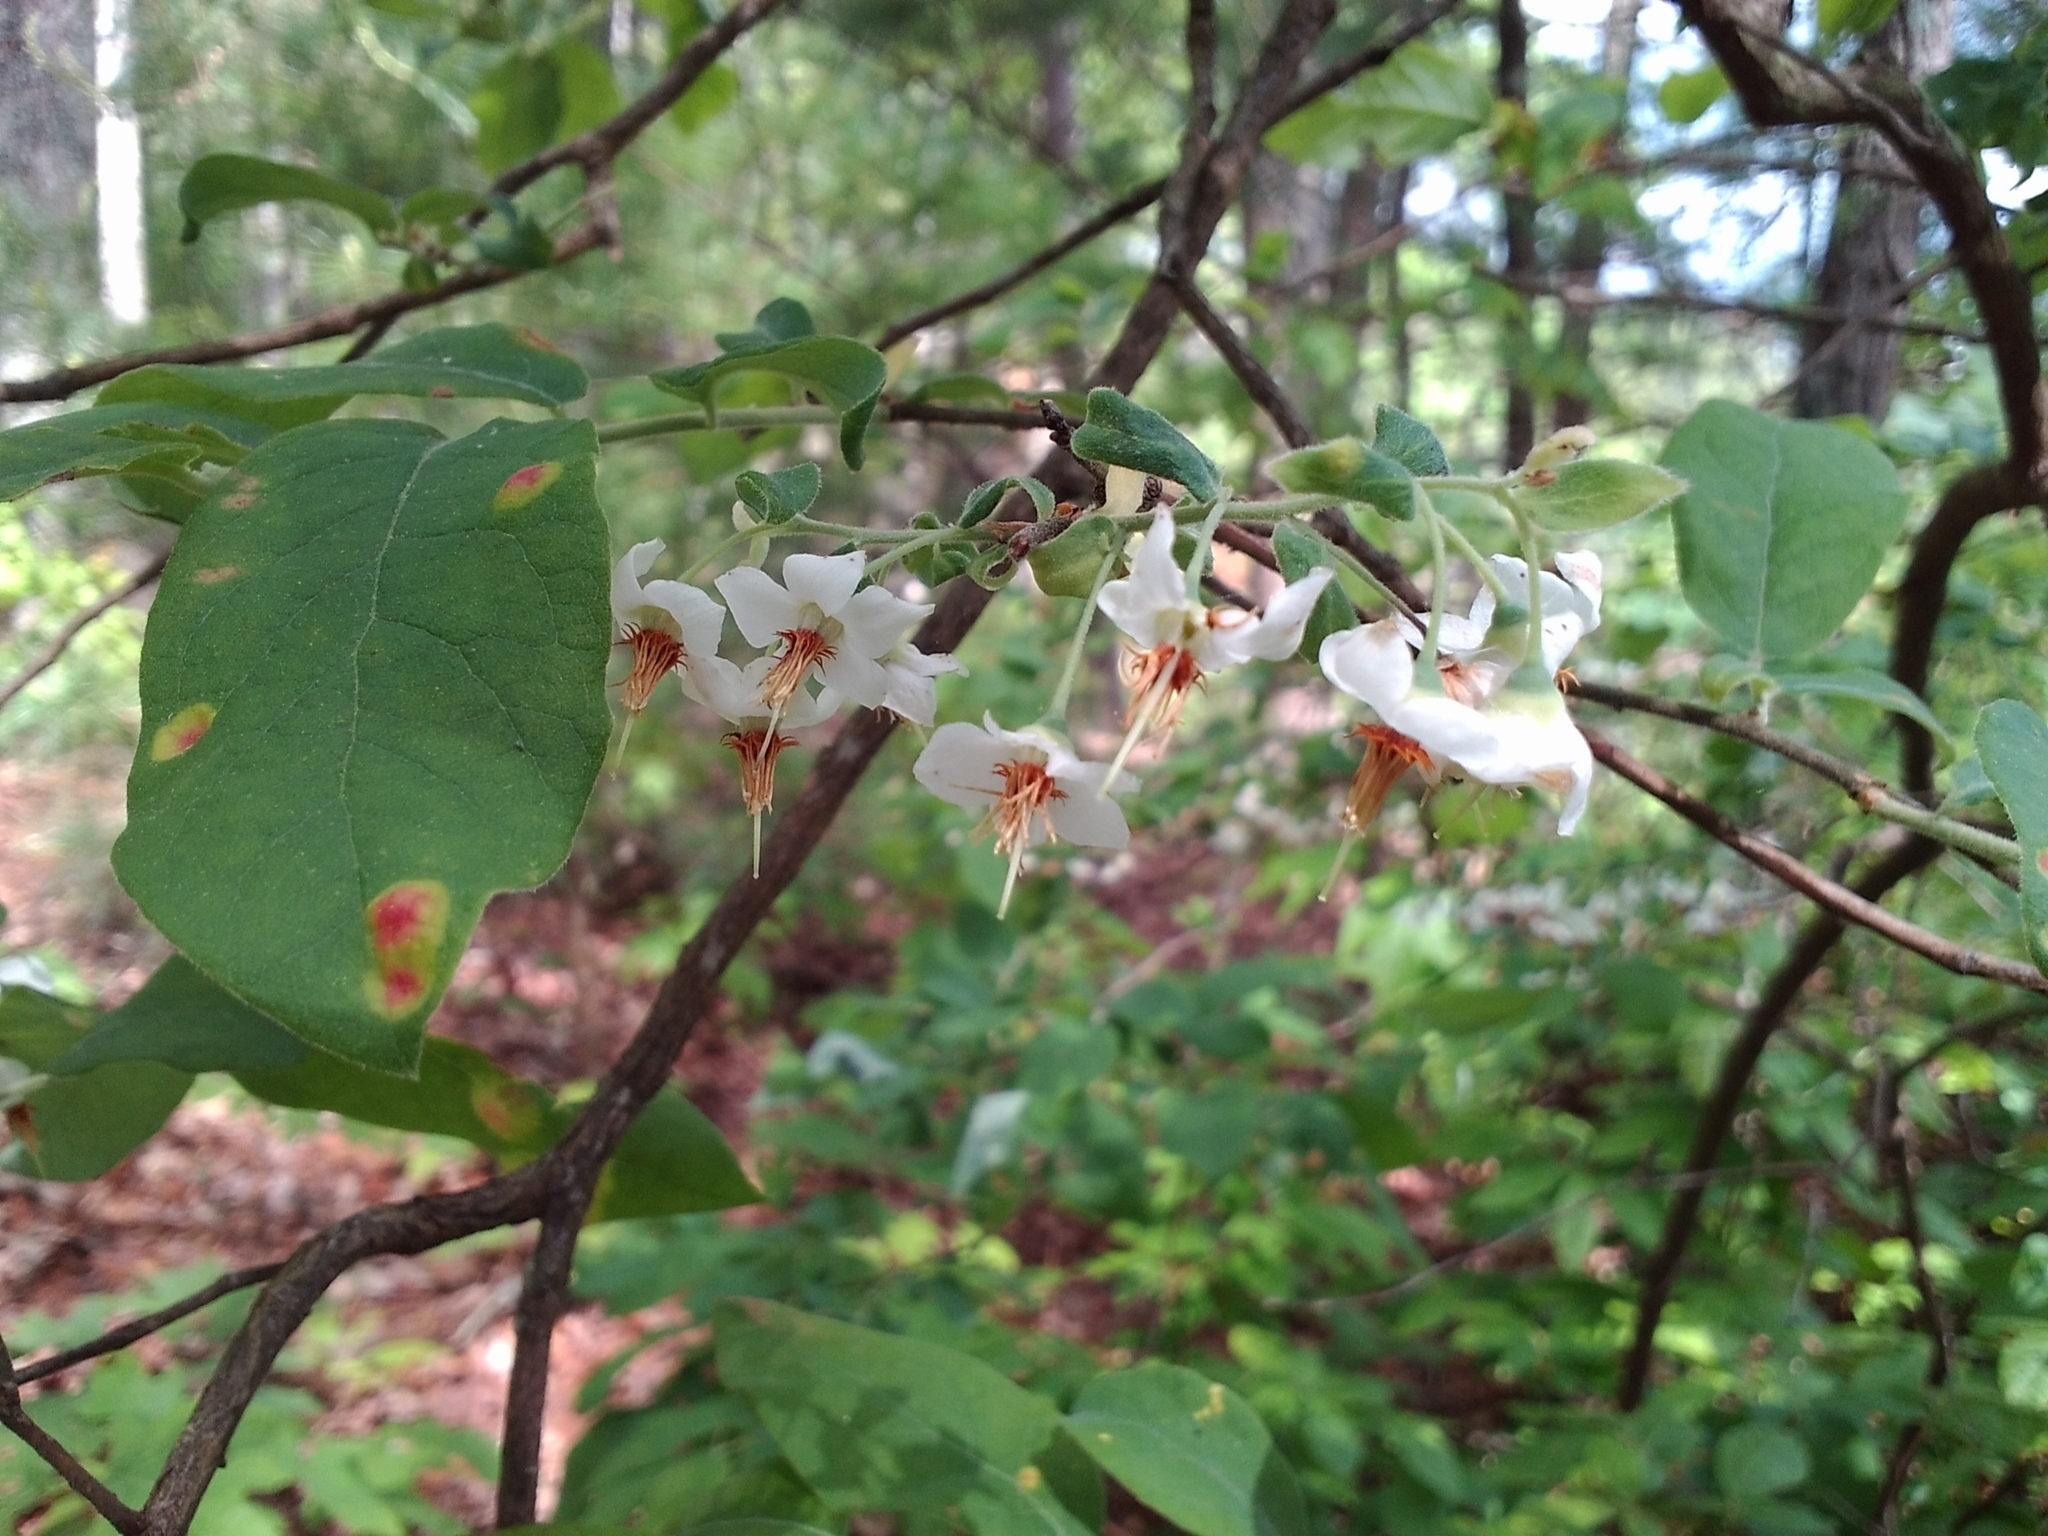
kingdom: Plantae
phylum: Tracheophyta
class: Magnoliopsida
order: Ericales
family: Ericaceae
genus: Vaccinium
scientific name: Vaccinium stamineum
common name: Deerberry
